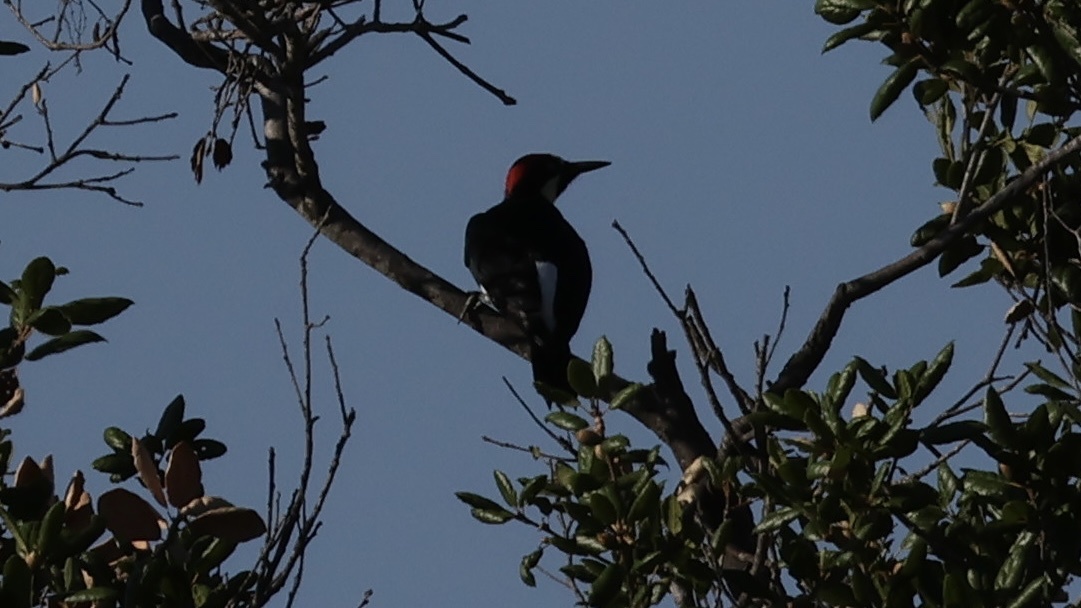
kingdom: Animalia
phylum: Chordata
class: Aves
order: Piciformes
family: Picidae
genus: Melanerpes
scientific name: Melanerpes formicivorus
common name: Acorn woodpecker
